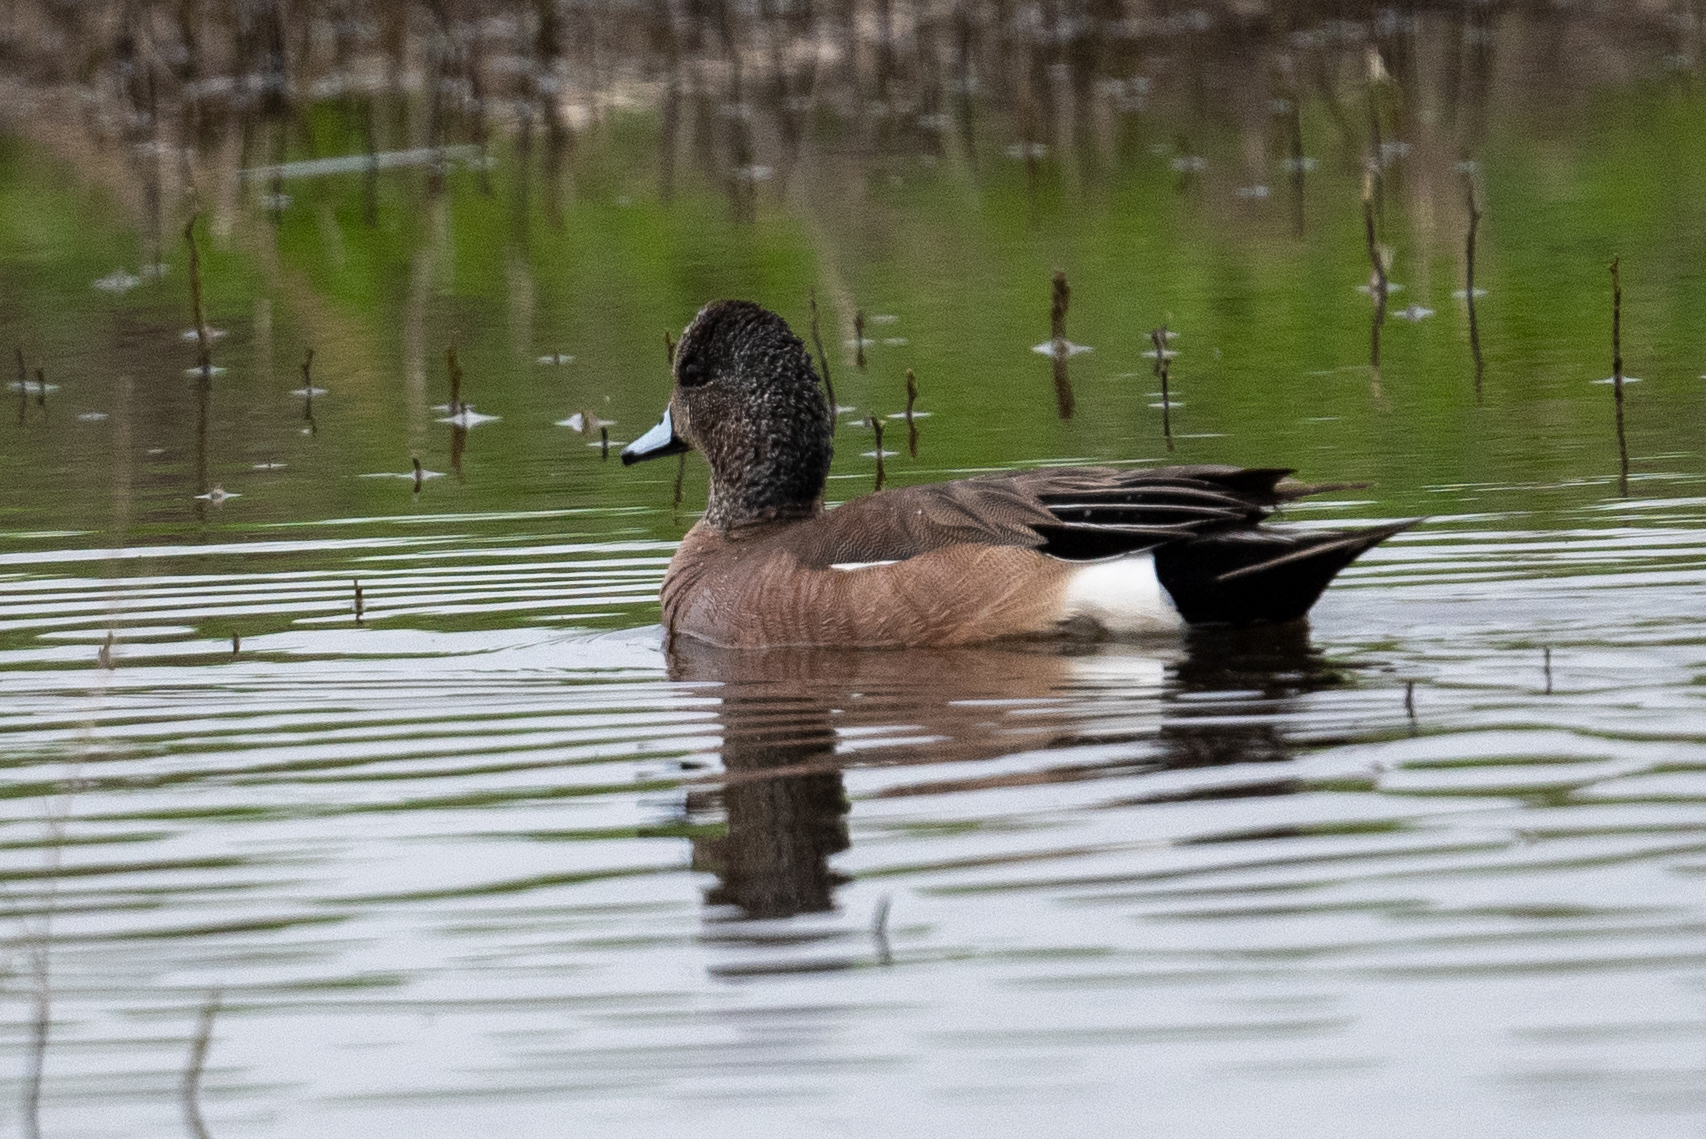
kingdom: Animalia
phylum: Chordata
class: Aves
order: Anseriformes
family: Anatidae
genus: Mareca
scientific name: Mareca americana
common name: American wigeon
